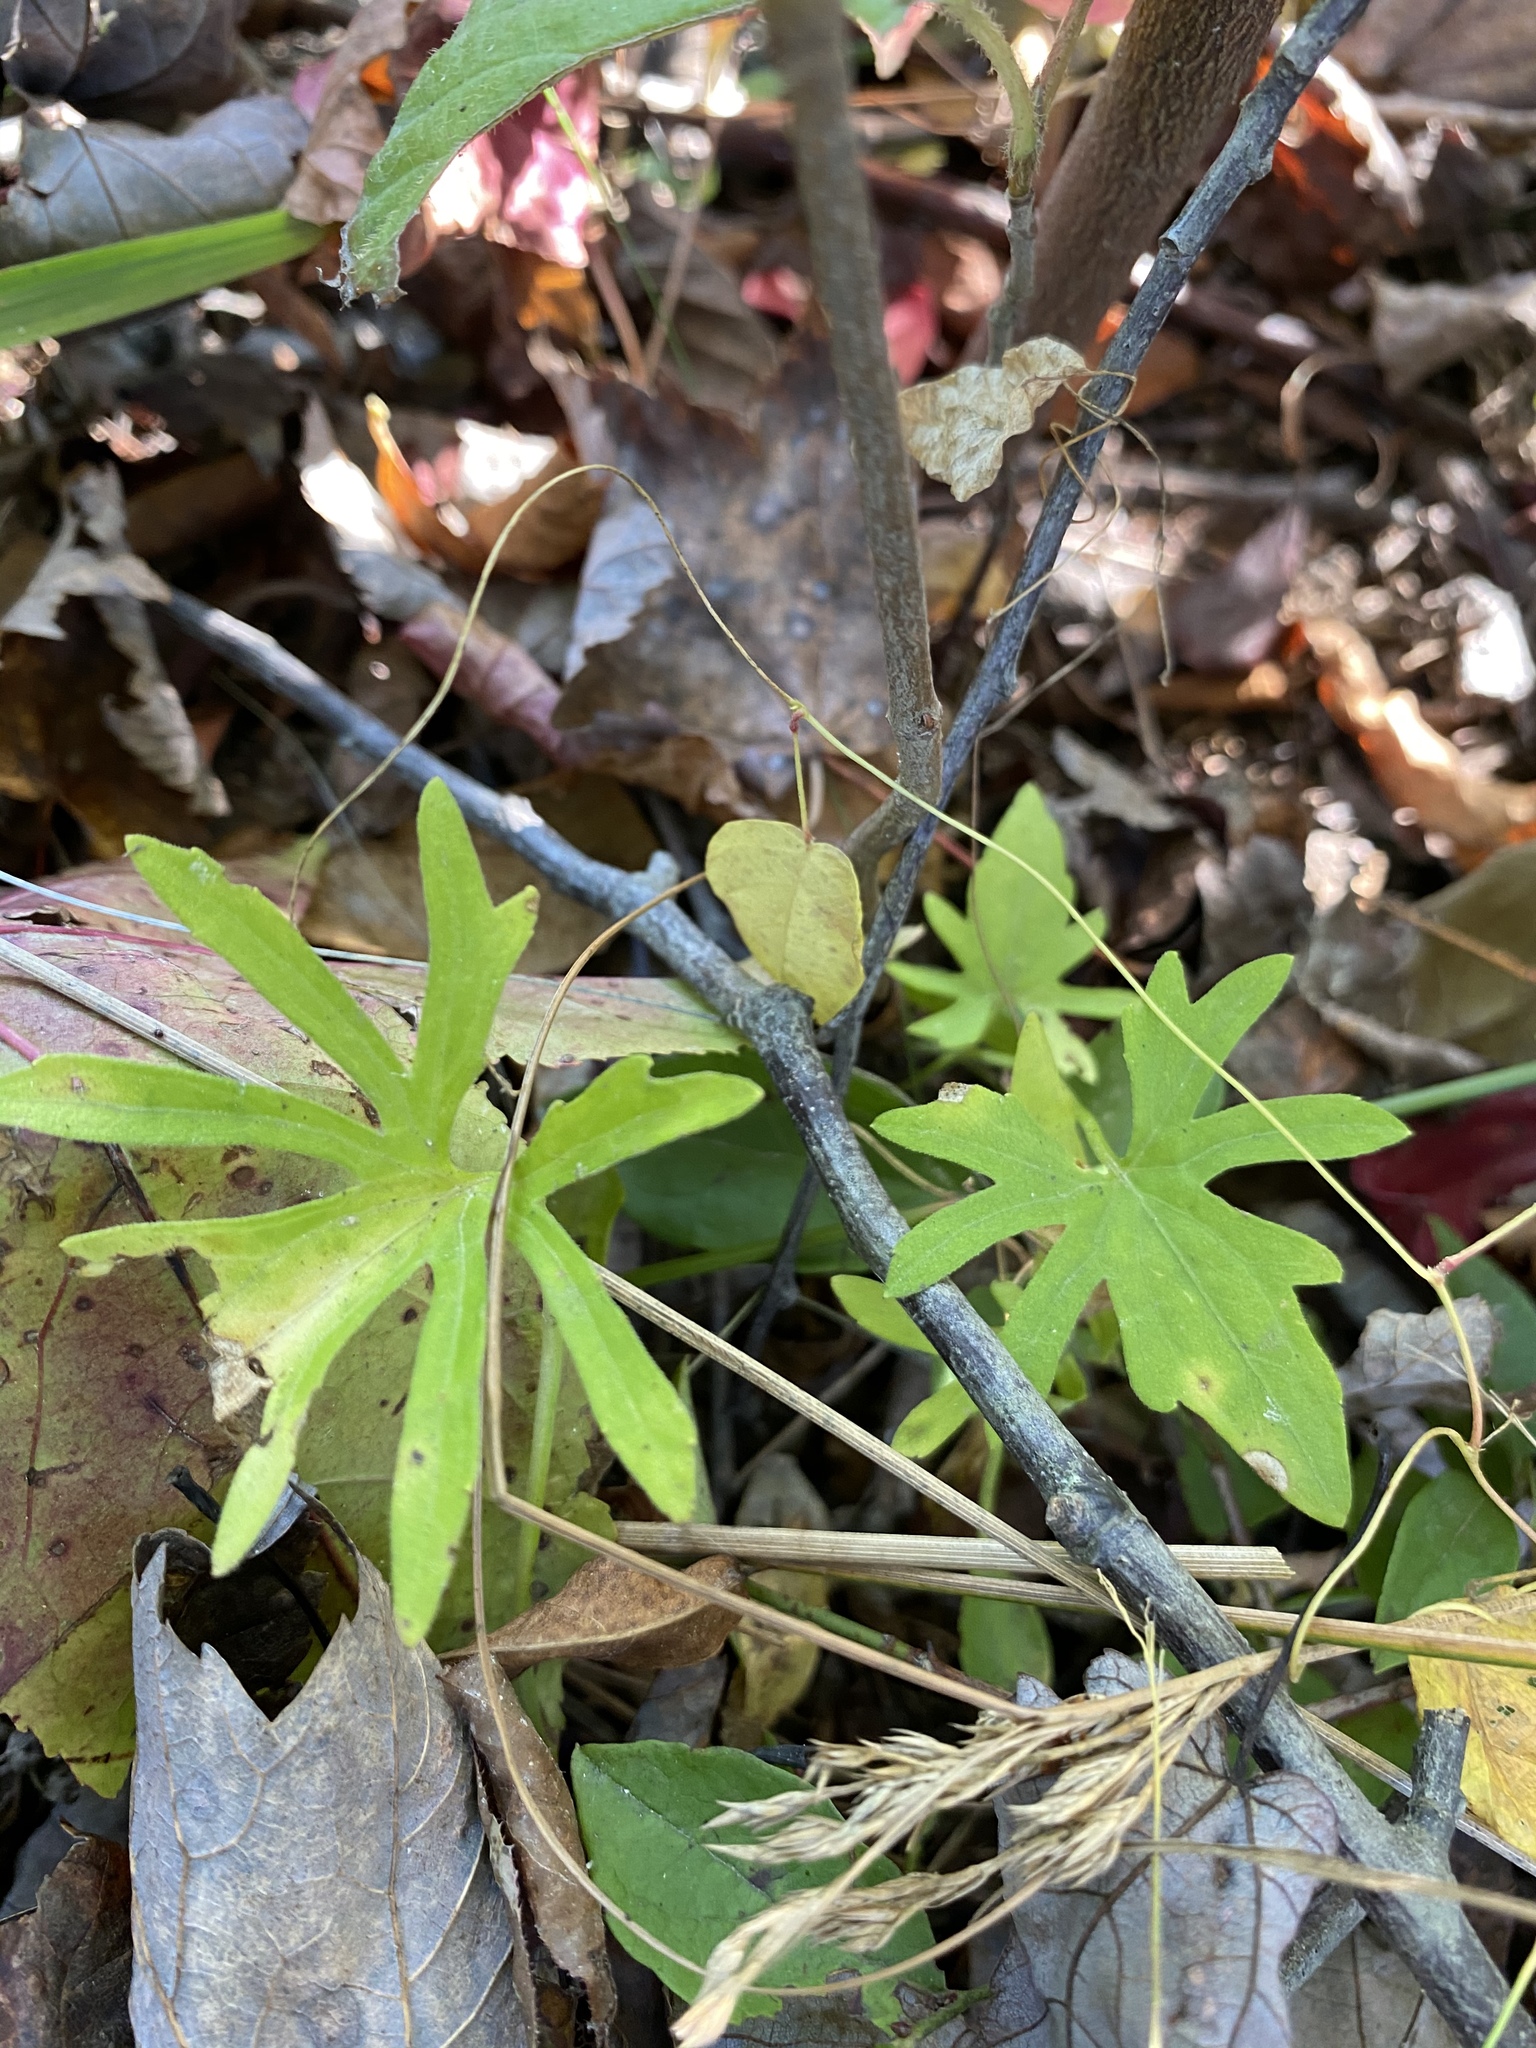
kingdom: Plantae
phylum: Tracheophyta
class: Magnoliopsida
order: Malpighiales
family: Violaceae
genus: Viola
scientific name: Viola brittoniana
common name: Northern coastal violet
